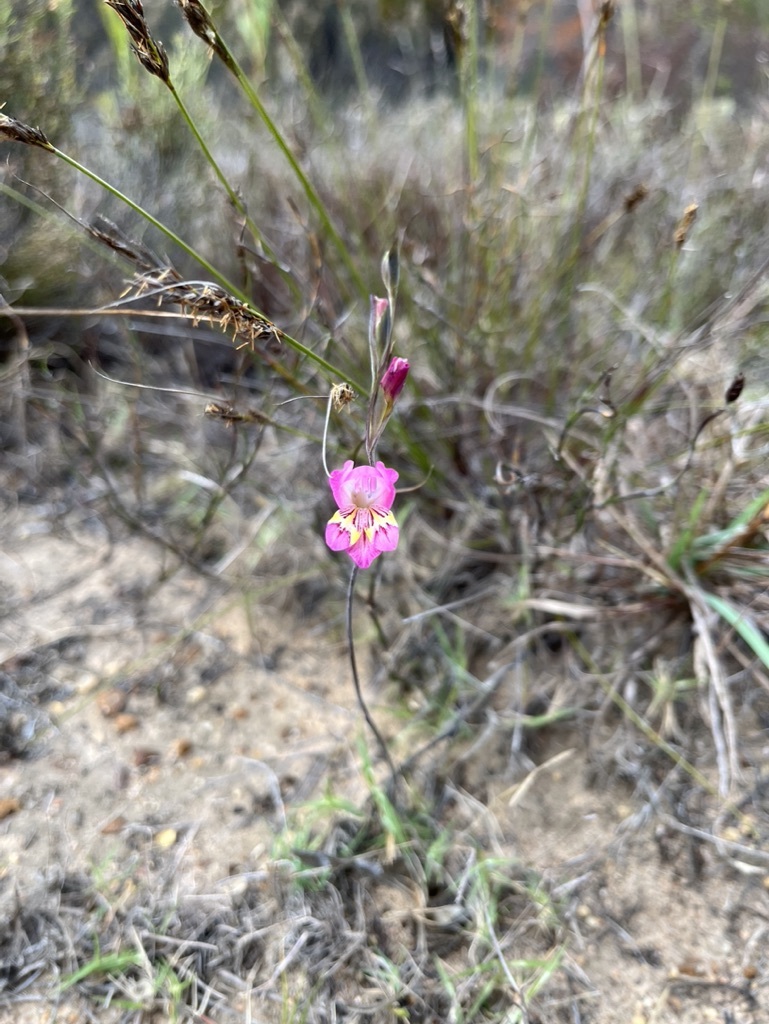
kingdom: Plantae
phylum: Tracheophyta
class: Liliopsida
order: Asparagales
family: Iridaceae
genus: Gladiolus
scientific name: Gladiolus brevifolius
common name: March pypie
